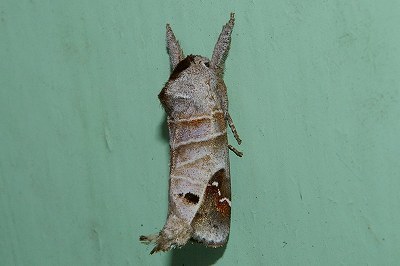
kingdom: Animalia
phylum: Arthropoda
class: Insecta
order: Lepidoptera
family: Notodontidae
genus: Clostera
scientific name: Clostera anachoreta
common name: Scarce chocolate-tip
